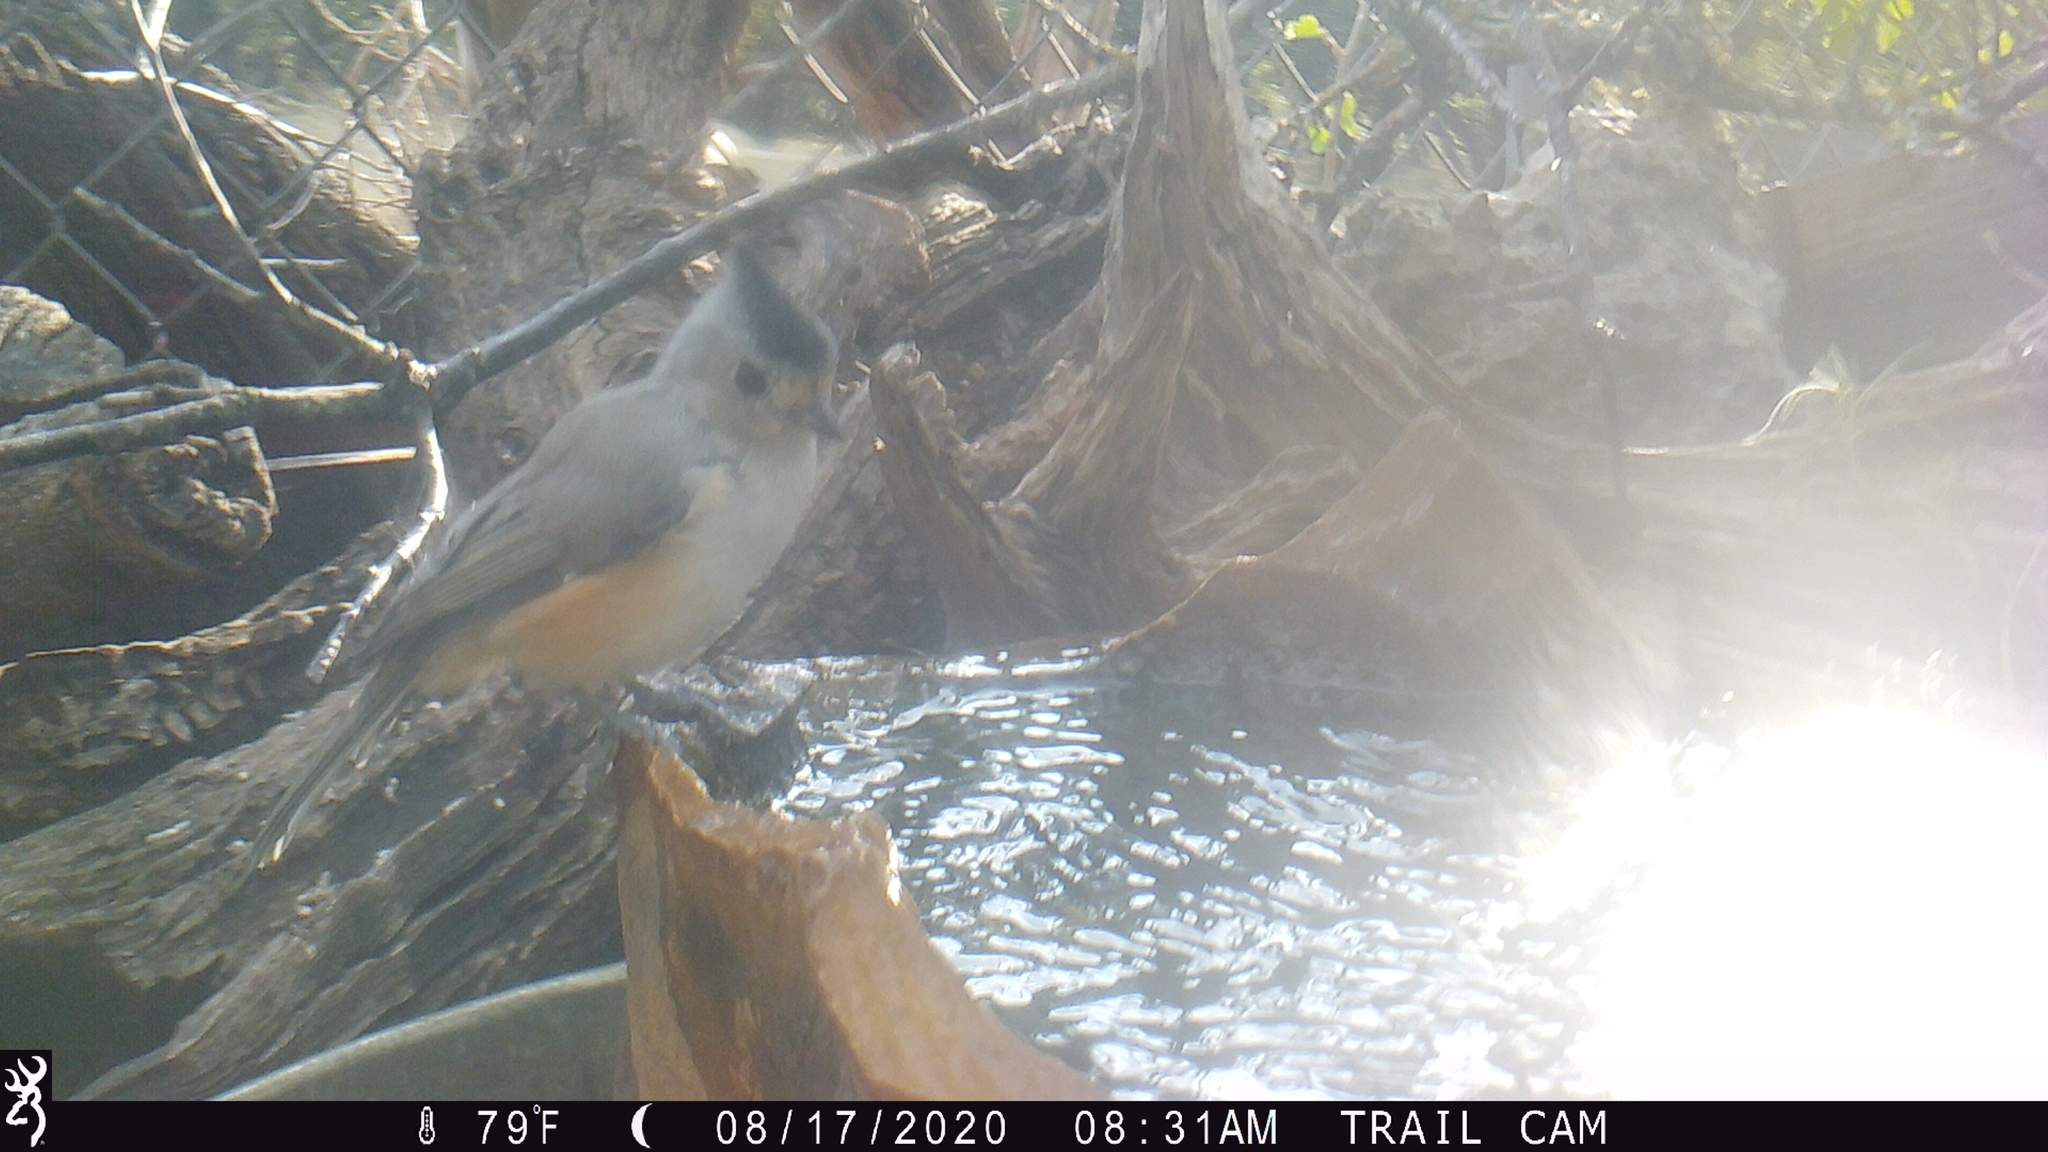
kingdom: Animalia
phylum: Chordata
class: Aves
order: Passeriformes
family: Paridae
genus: Baeolophus
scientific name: Baeolophus atricristatus
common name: Black-crested titmouse
